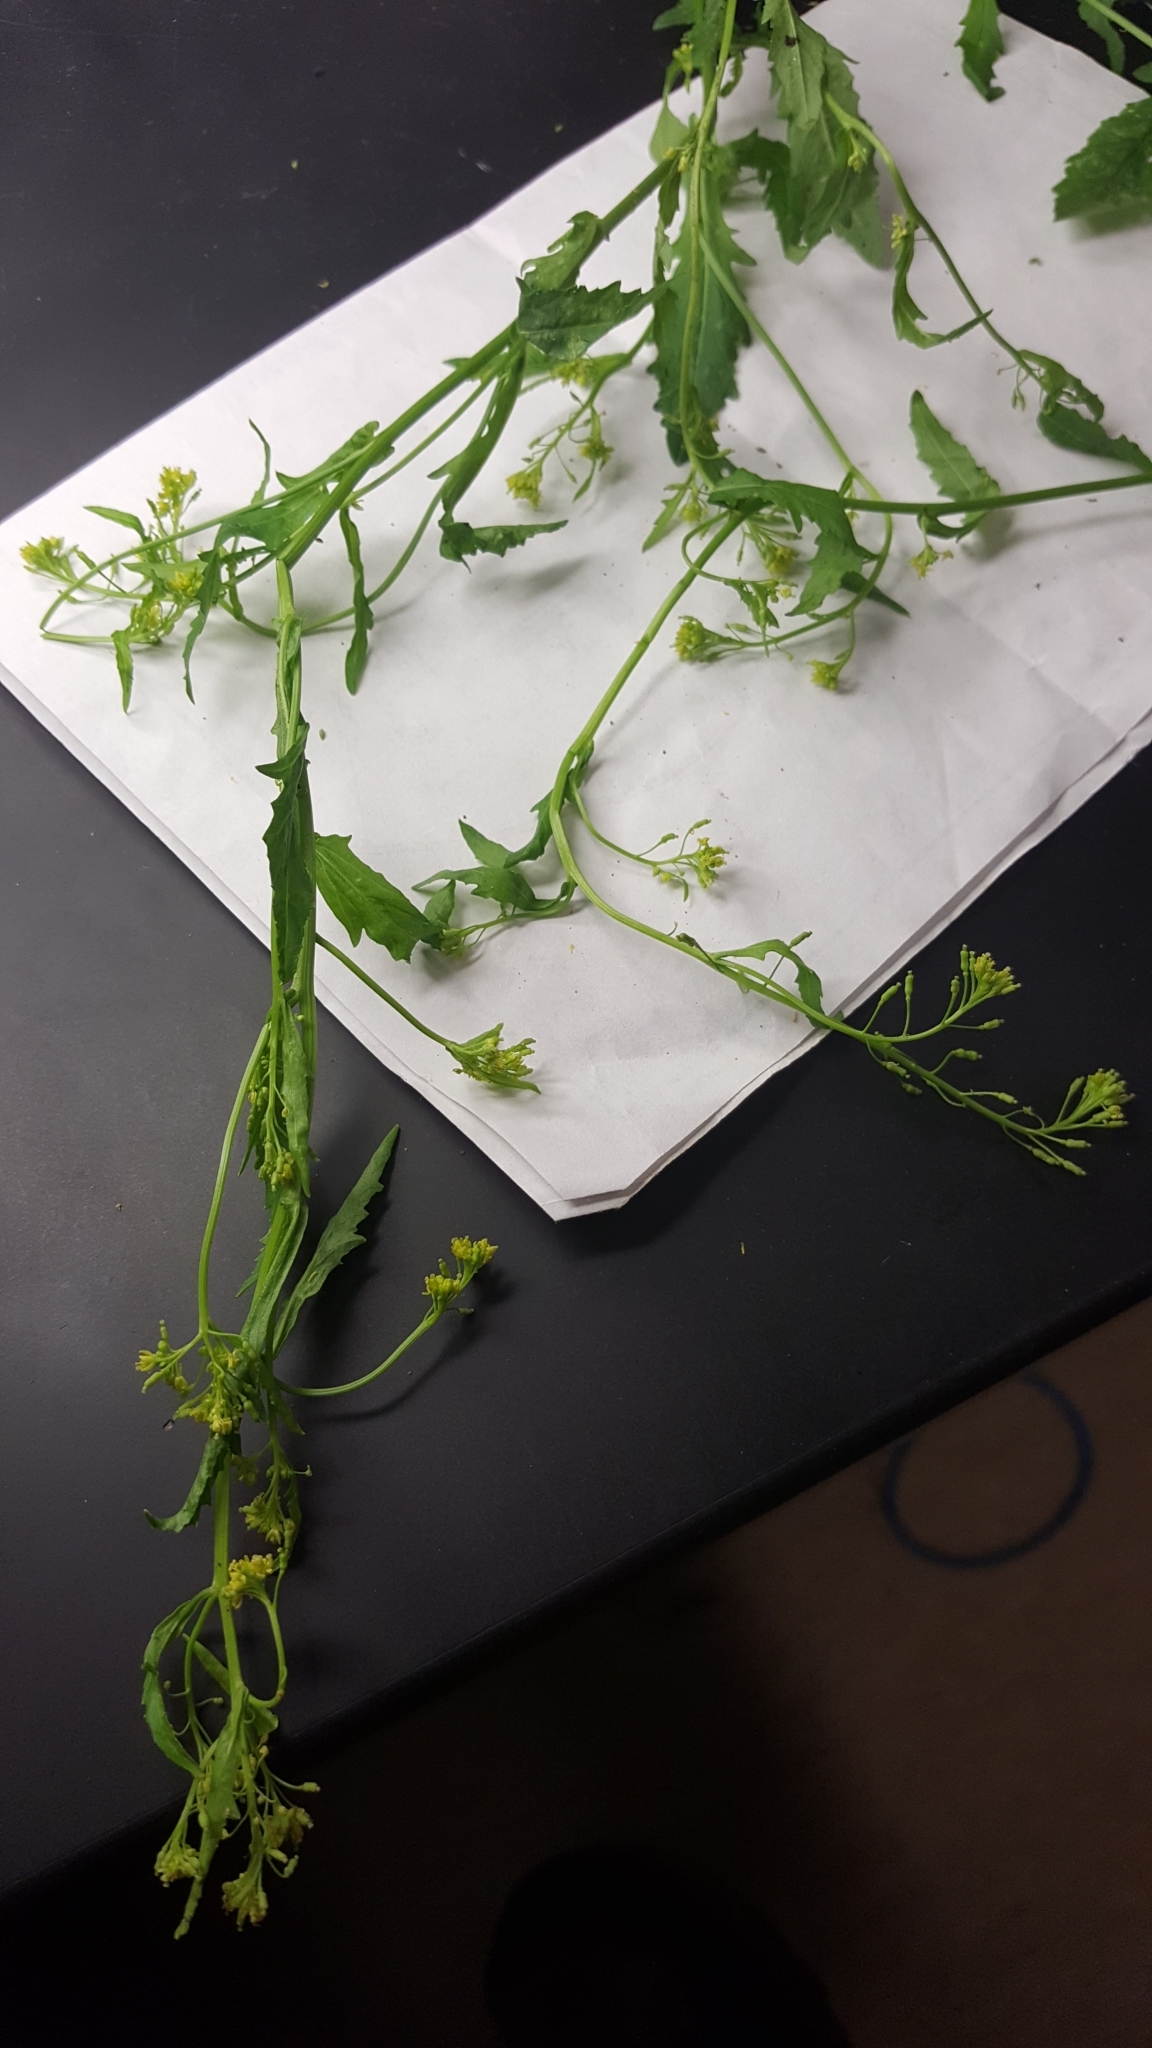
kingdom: Plantae
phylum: Tracheophyta
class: Magnoliopsida
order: Brassicales
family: Brassicaceae
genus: Rorippa
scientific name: Rorippa palustris
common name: Marsh yellow-cress
